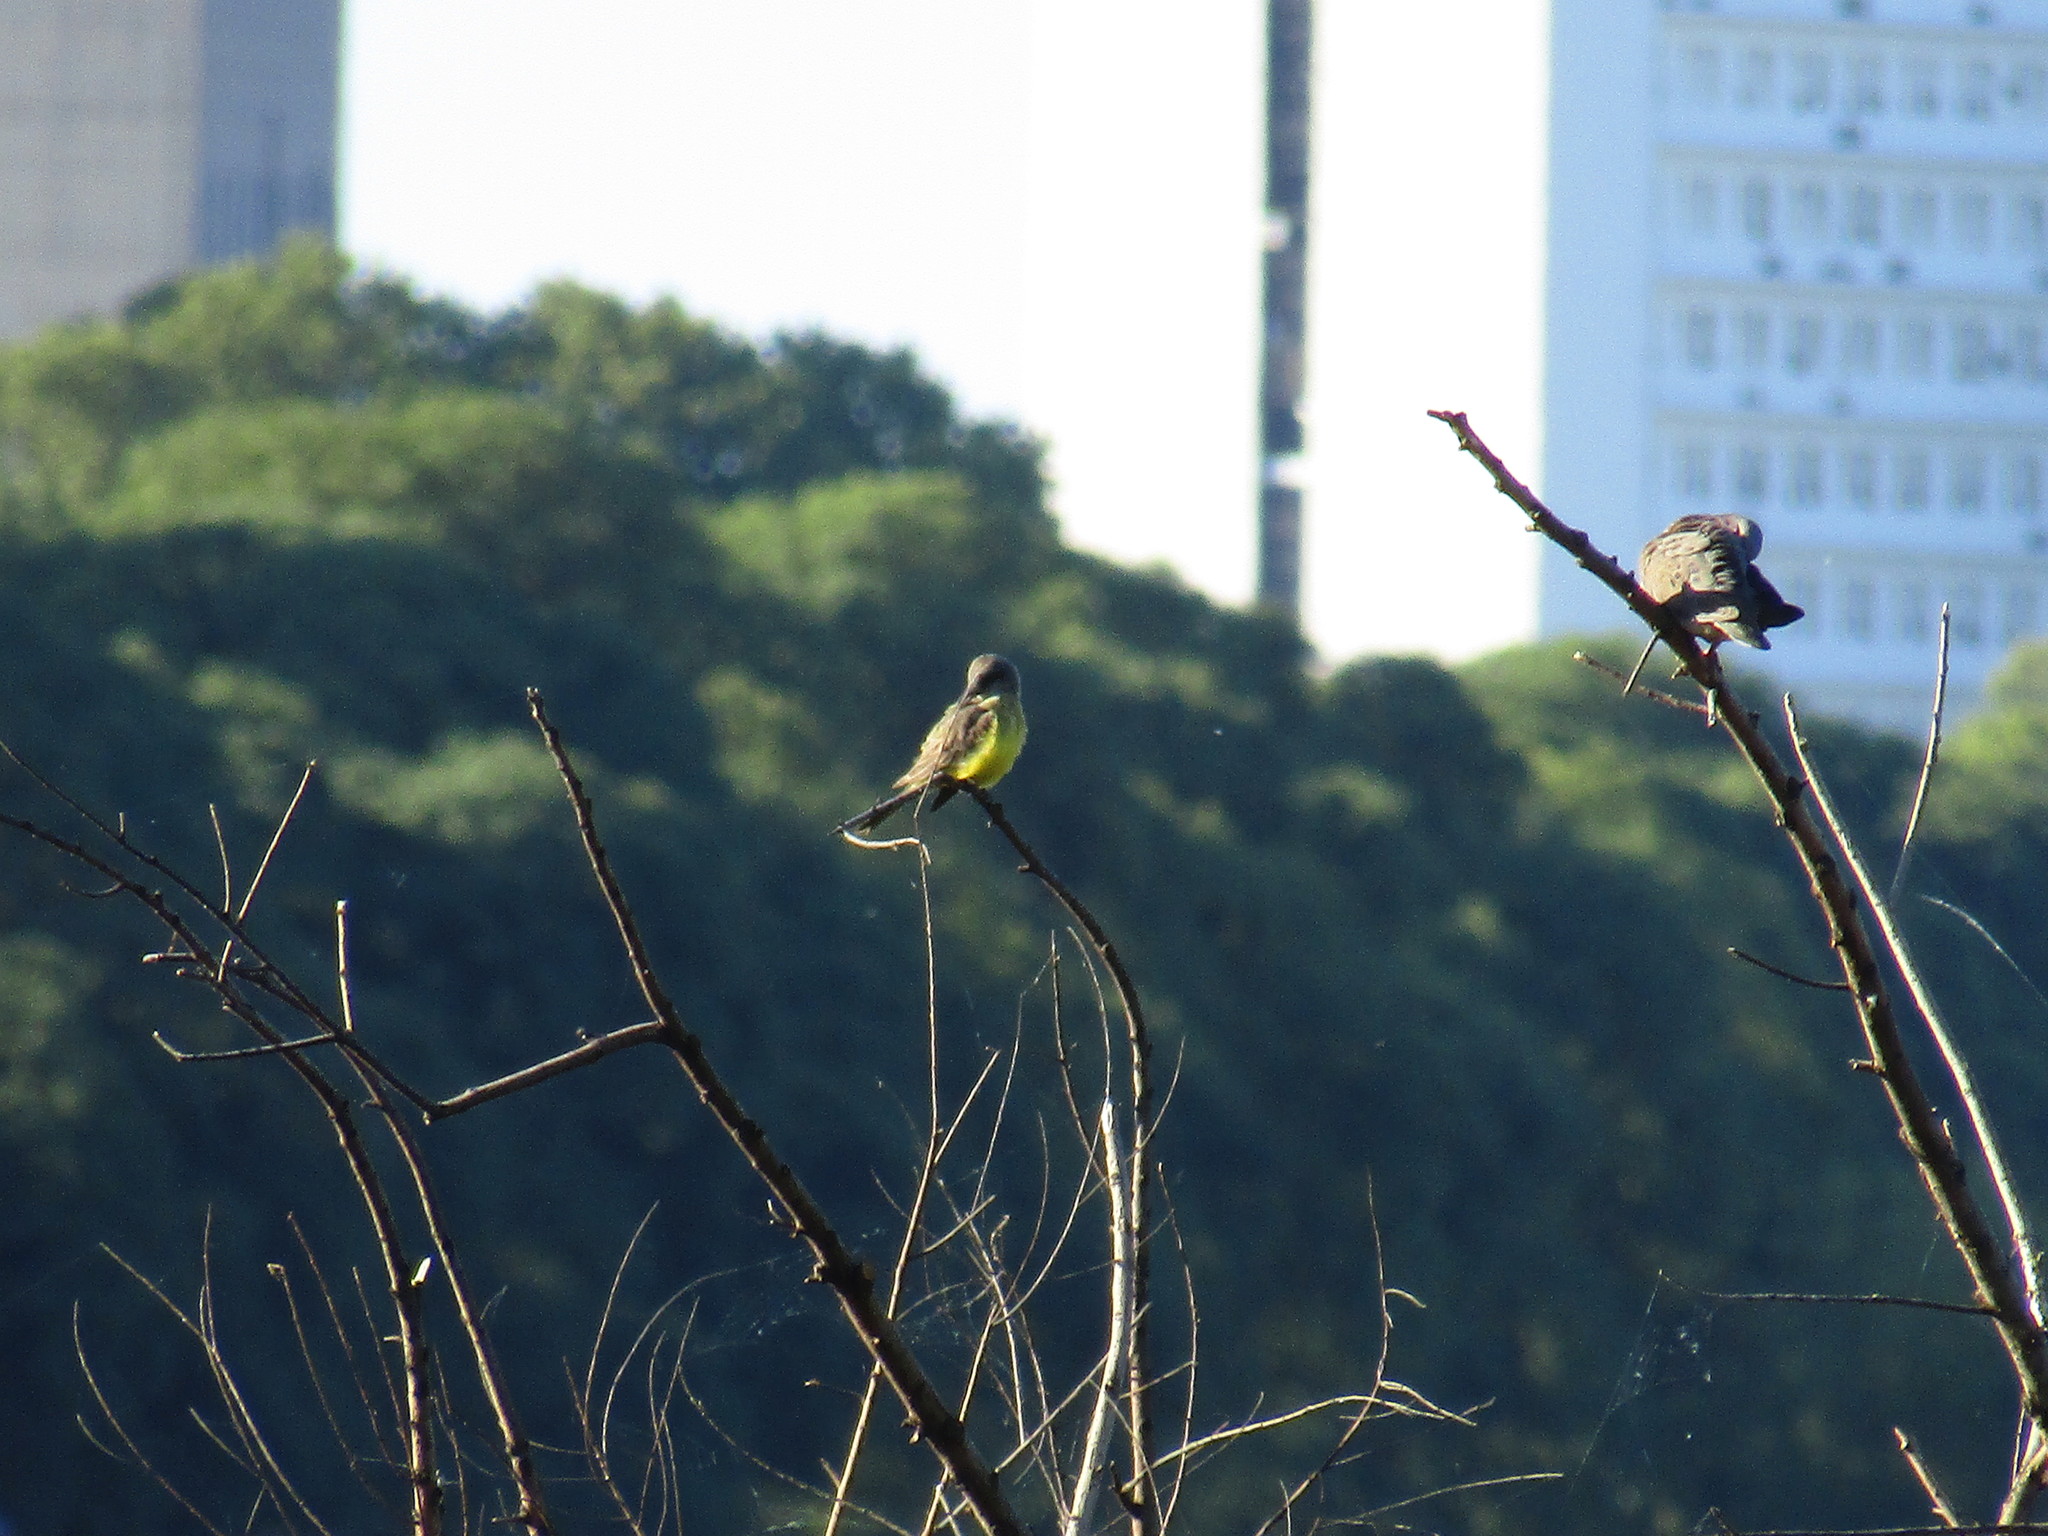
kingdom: Animalia
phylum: Chordata
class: Aves
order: Passeriformes
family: Tyrannidae
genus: Tyrannus
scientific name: Tyrannus melancholicus
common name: Tropical kingbird
